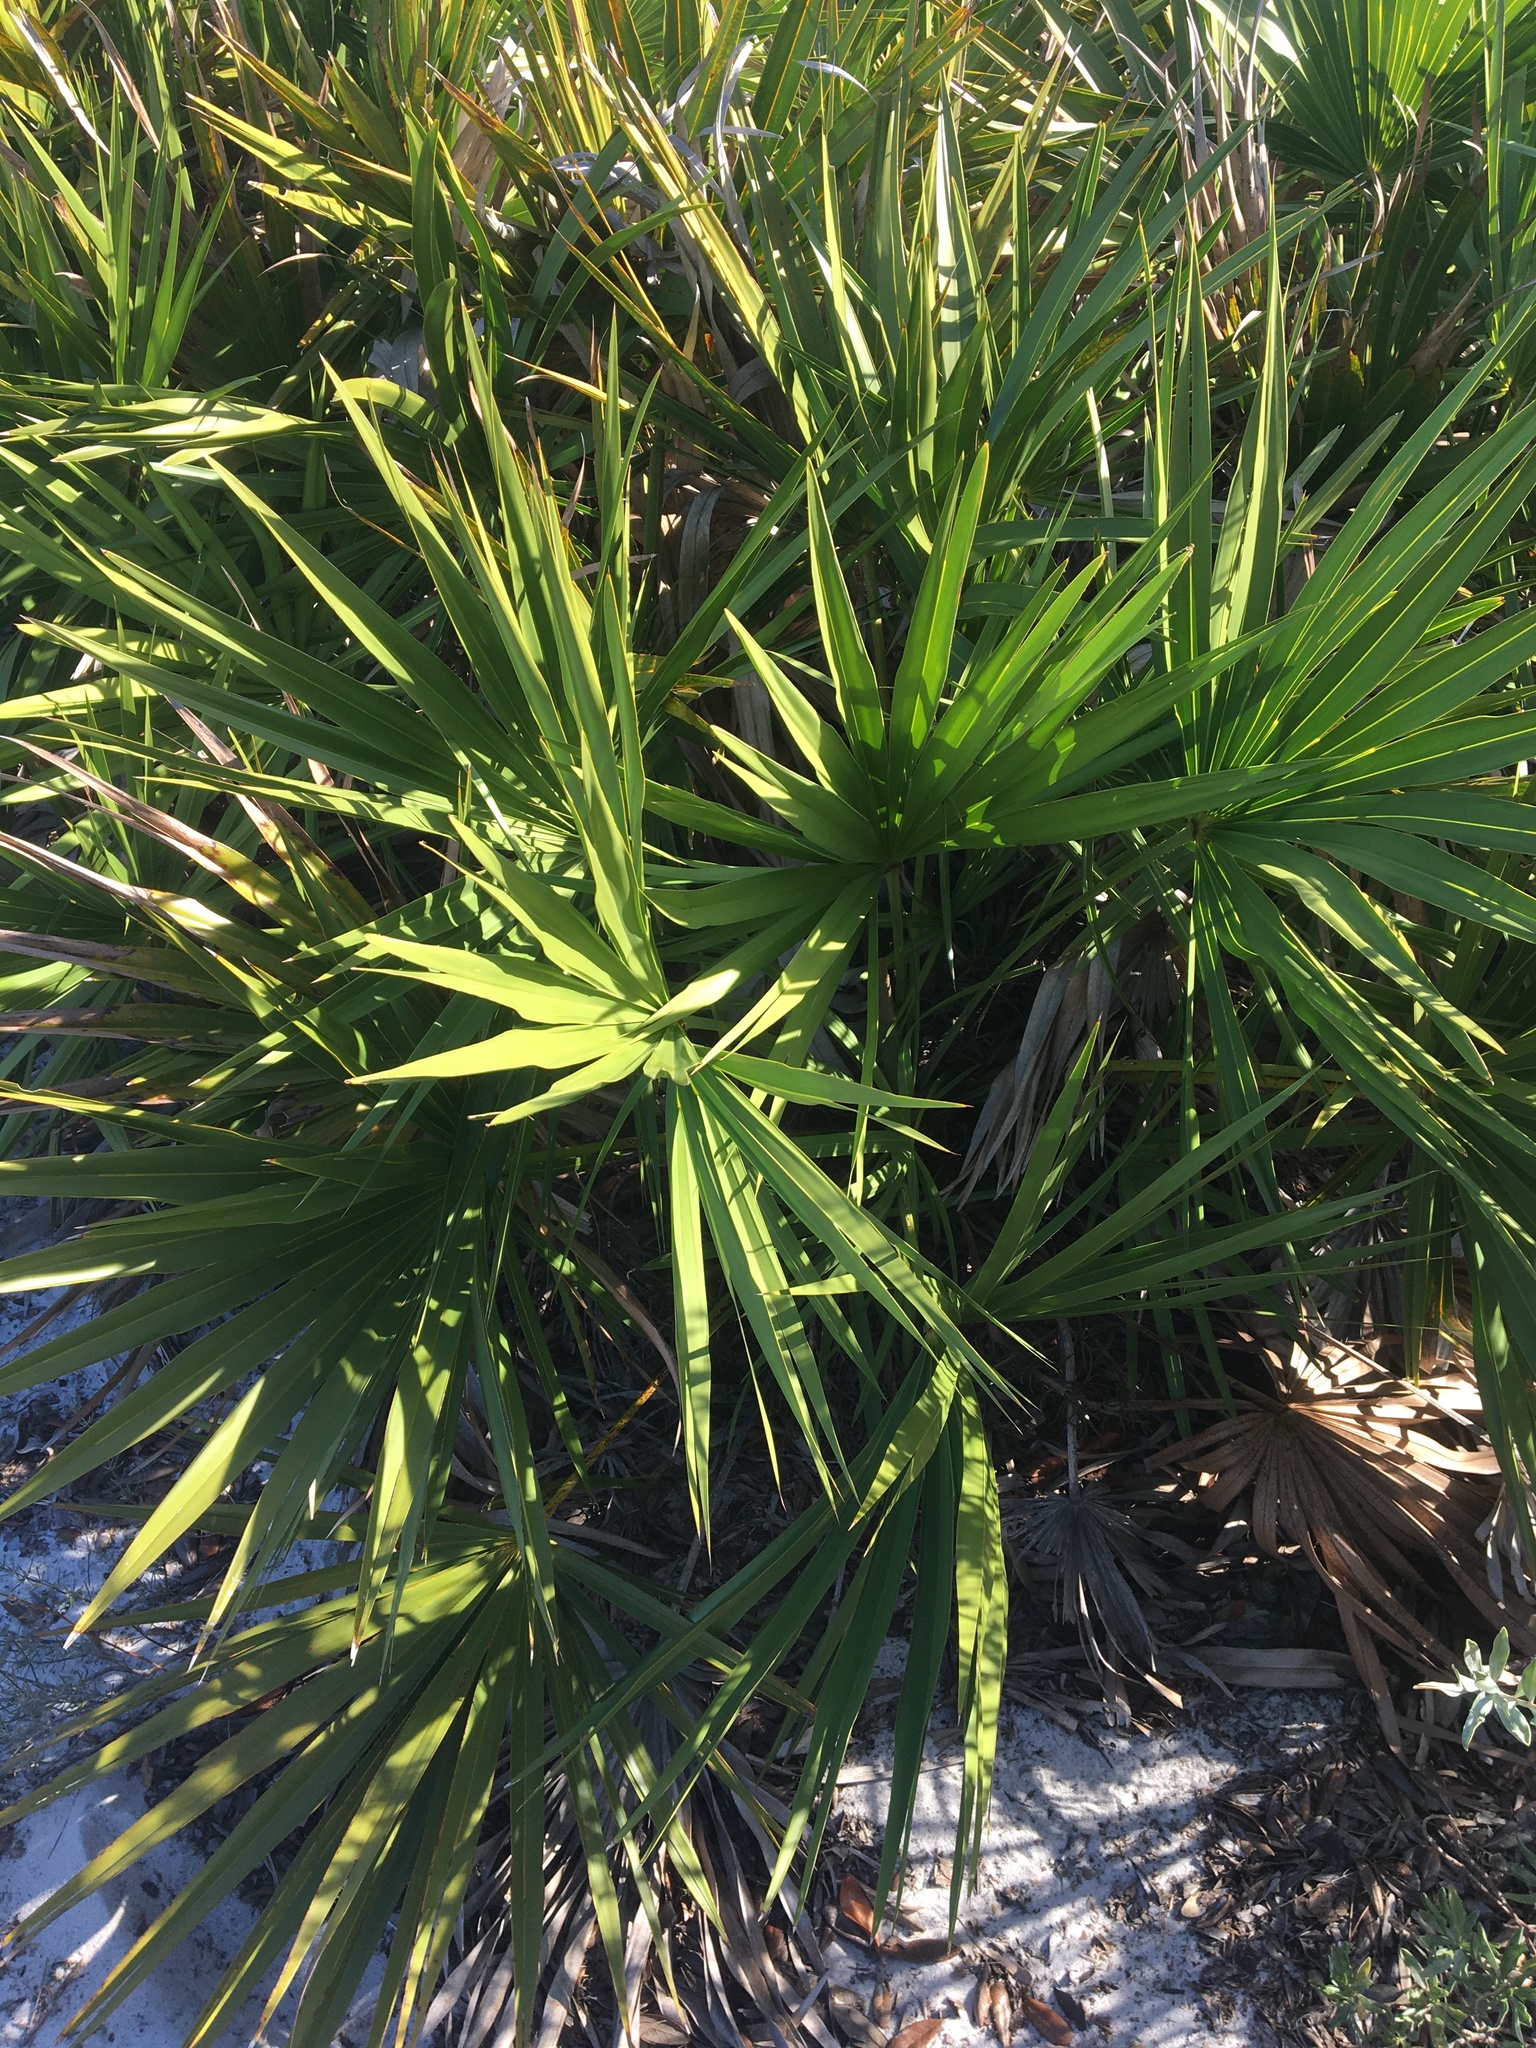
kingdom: Plantae
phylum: Tracheophyta
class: Liliopsida
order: Arecales
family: Arecaceae
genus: Serenoa
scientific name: Serenoa repens
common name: Saw-palmetto
